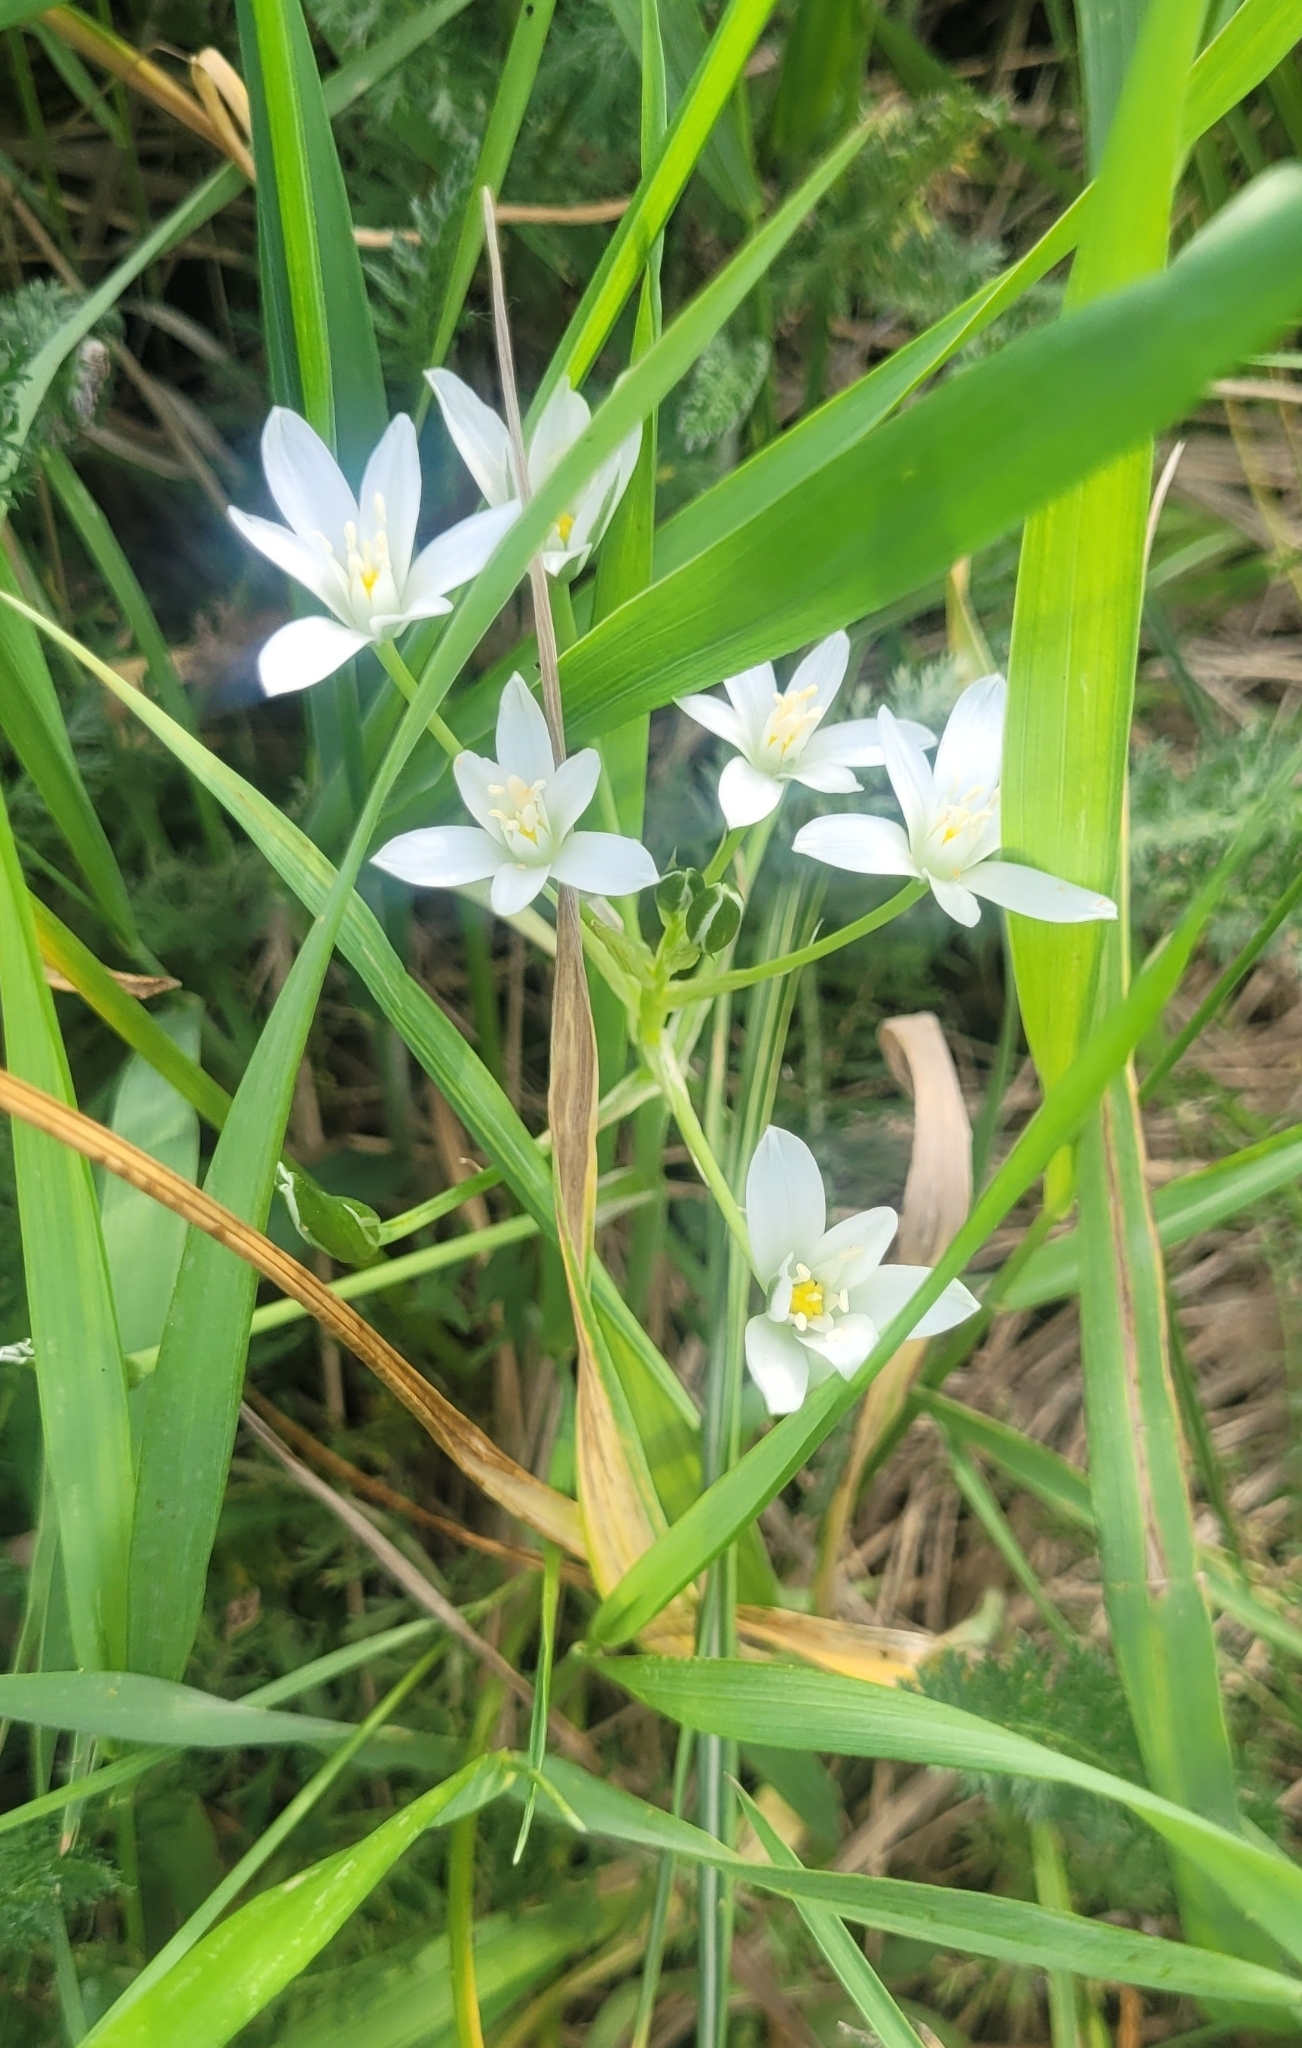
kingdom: Plantae
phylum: Tracheophyta
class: Liliopsida
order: Asparagales
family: Asparagaceae
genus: Ornithogalum
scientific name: Ornithogalum umbellatum
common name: Garden star-of-bethlehem
